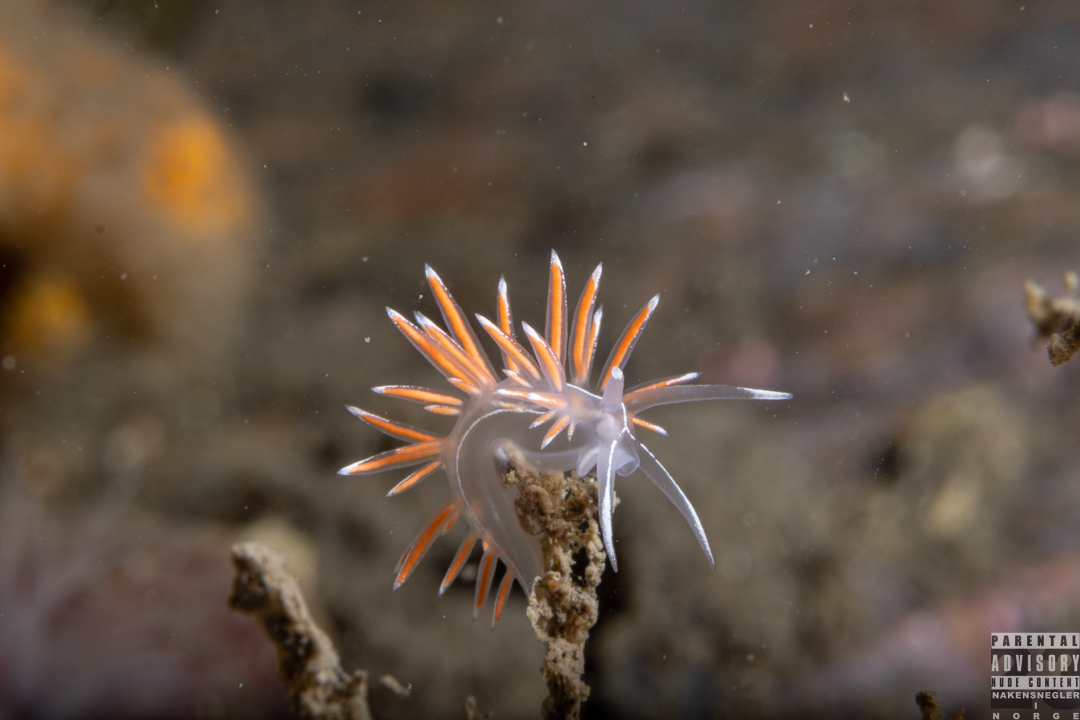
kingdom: Animalia
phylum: Mollusca
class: Gastropoda
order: Nudibranchia
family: Coryphellidae
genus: Coryphella
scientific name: Coryphella lineata
